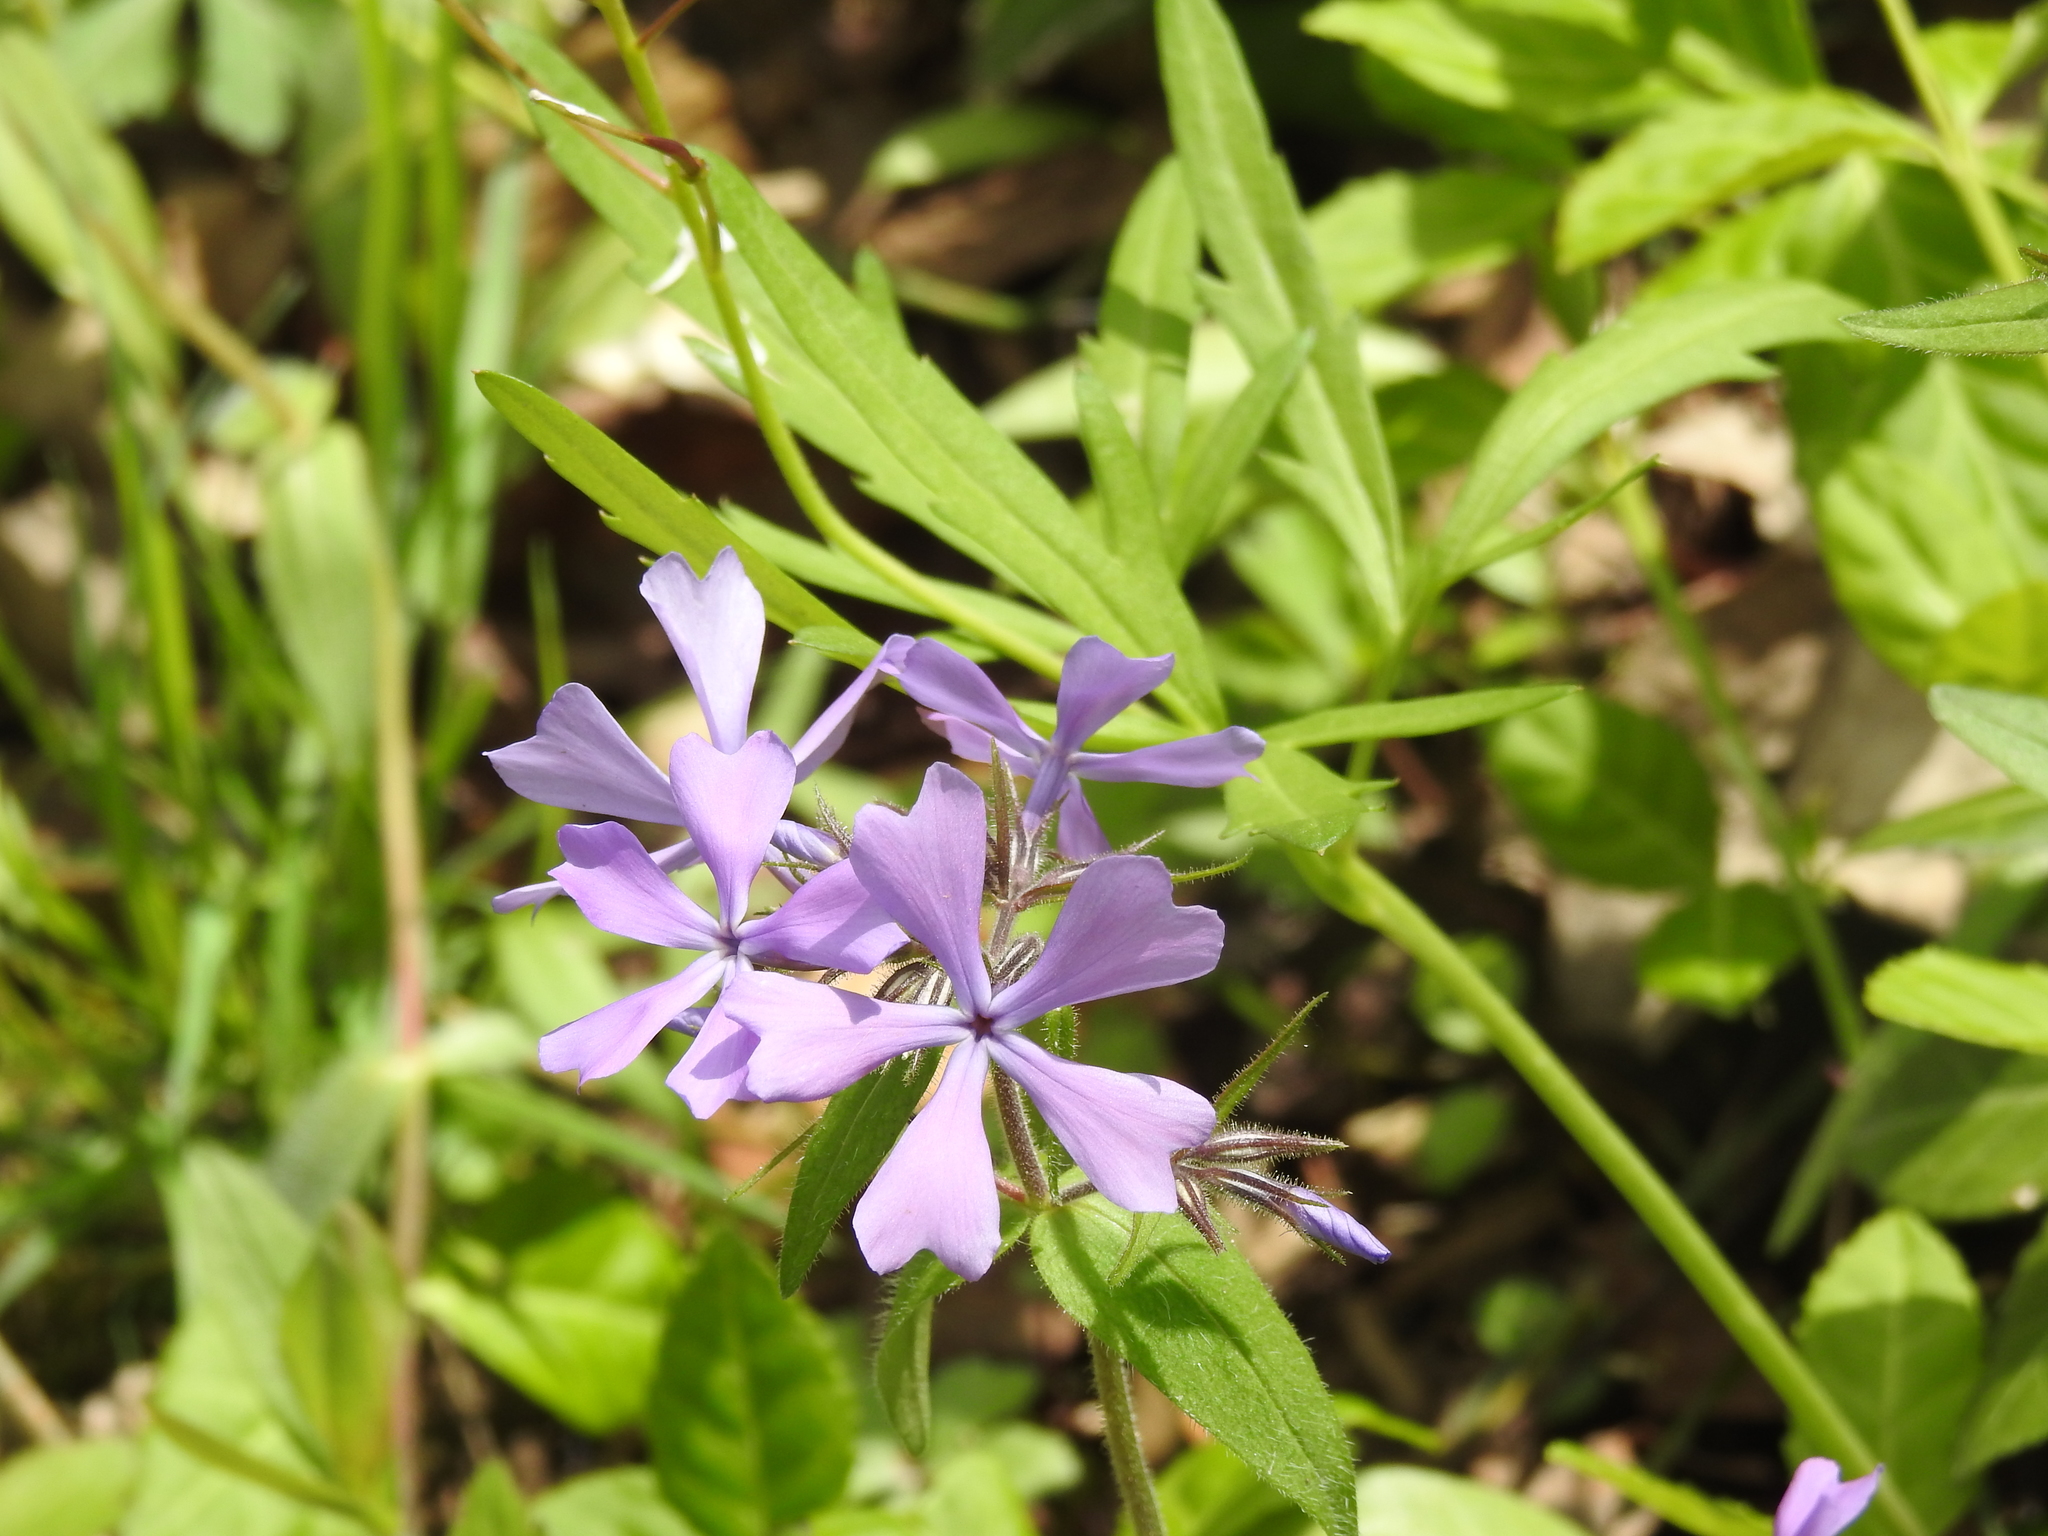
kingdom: Plantae
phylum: Tracheophyta
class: Magnoliopsida
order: Ericales
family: Polemoniaceae
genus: Phlox
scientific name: Phlox divaricata
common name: Blue phlox
